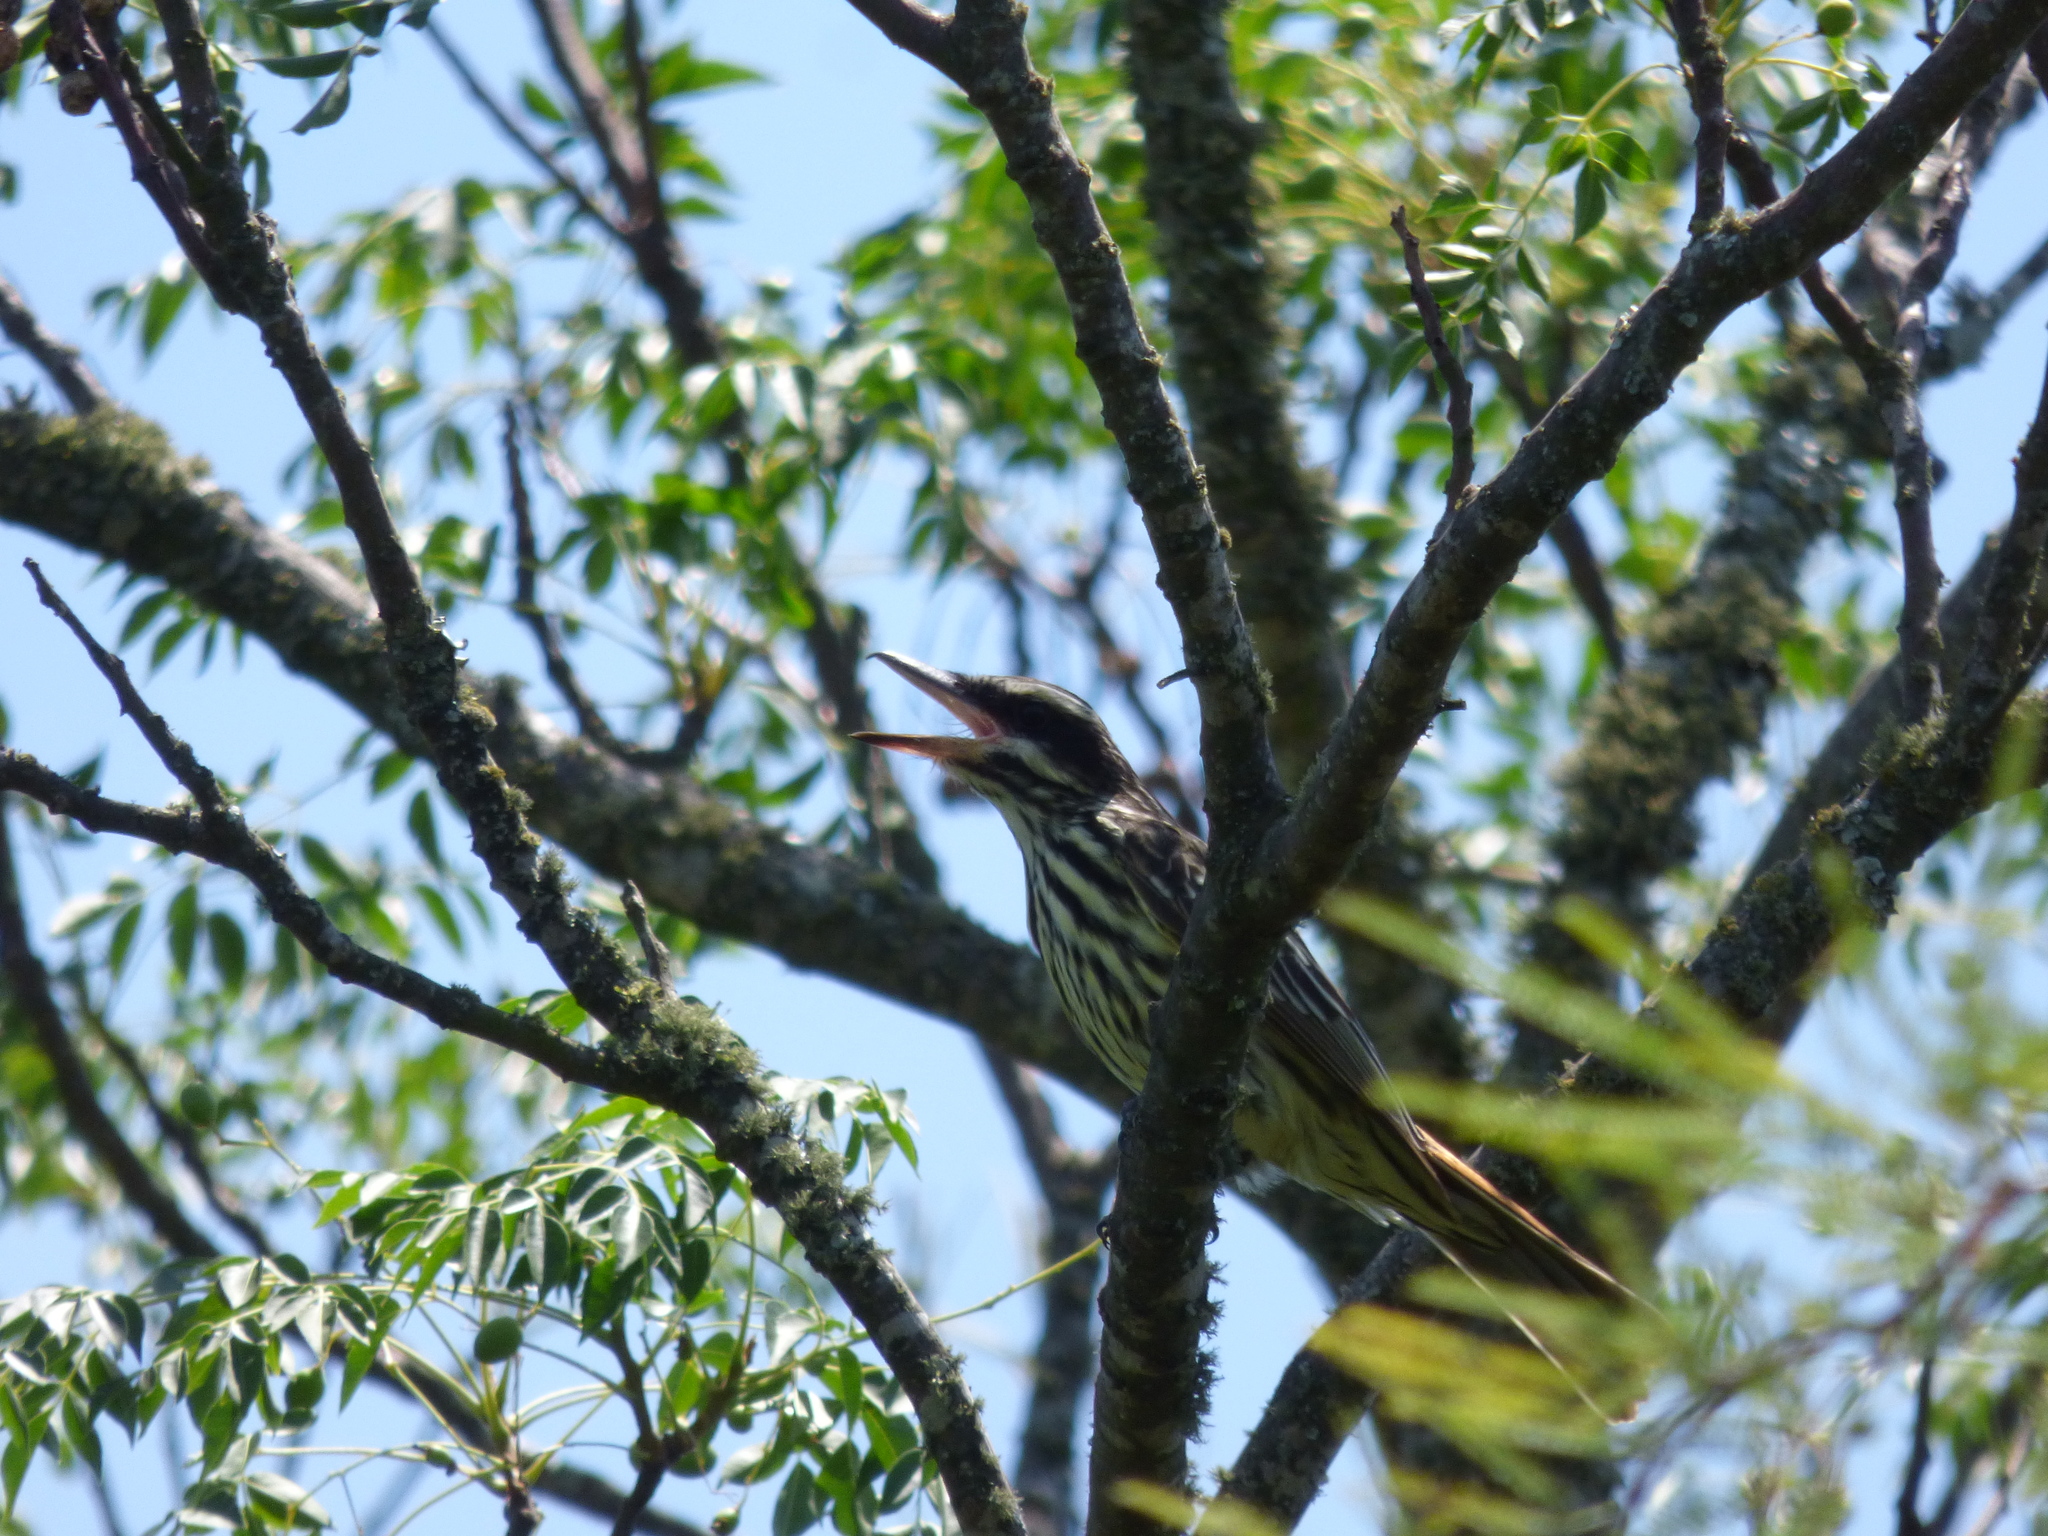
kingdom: Animalia
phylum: Chordata
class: Aves
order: Passeriformes
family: Tyrannidae
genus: Myiodynastes
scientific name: Myiodynastes maculatus
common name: Streaked flycatcher
